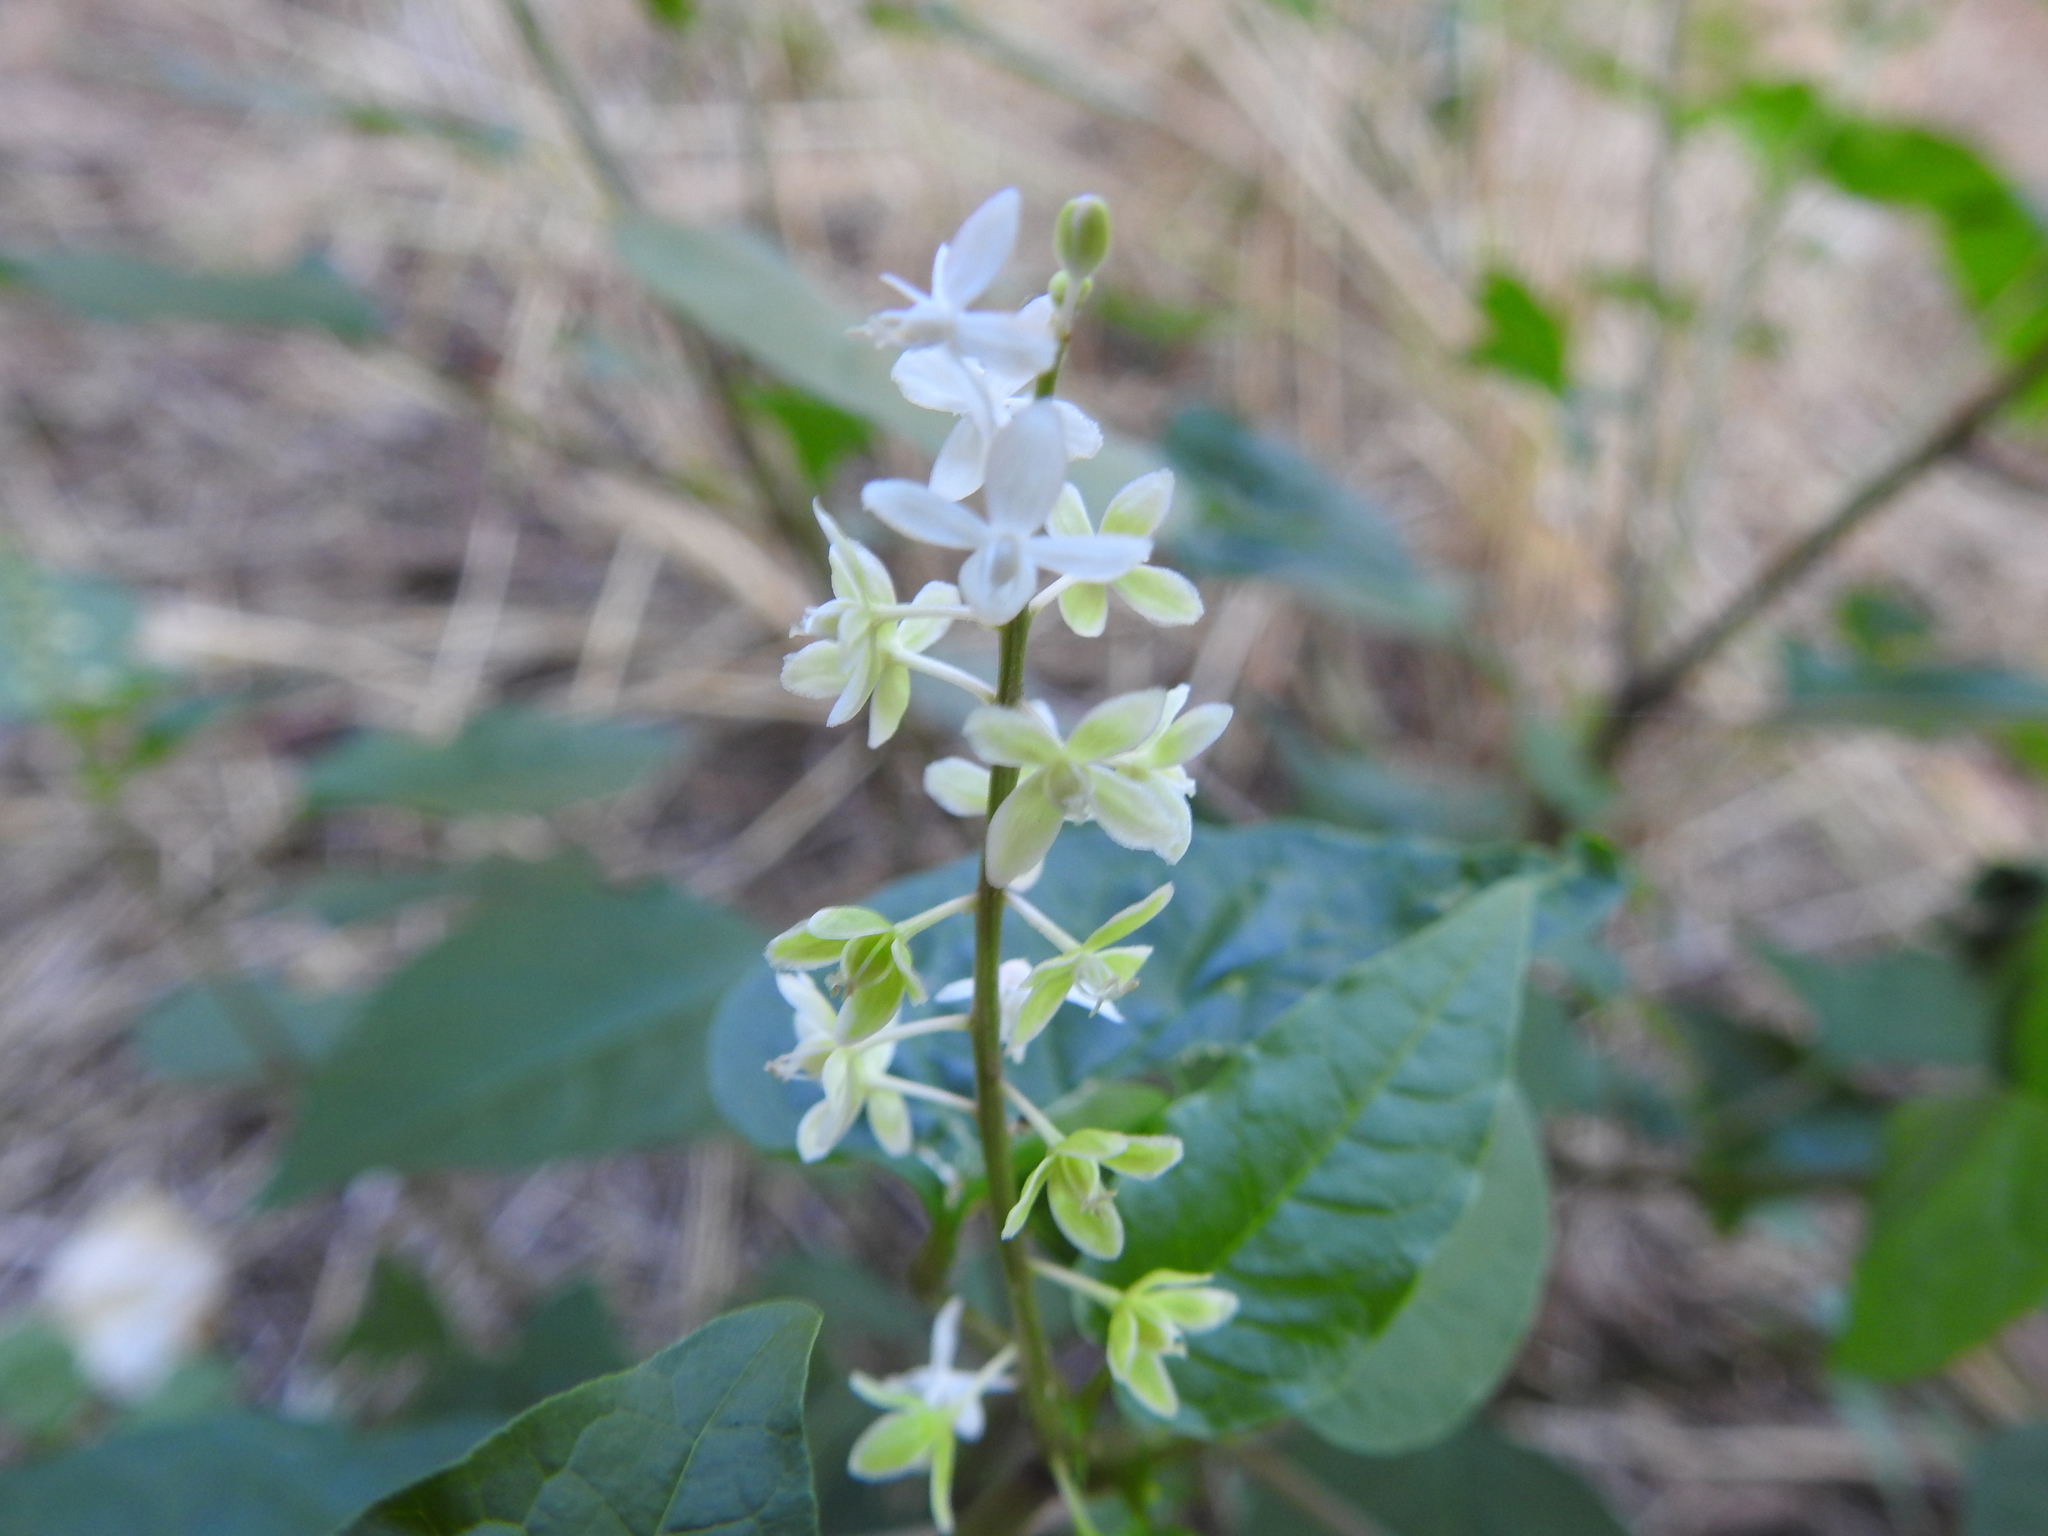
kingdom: Plantae
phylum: Tracheophyta
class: Magnoliopsida
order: Caryophyllales
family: Phytolaccaceae
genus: Rivina
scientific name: Rivina humilis
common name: Rougeplant
